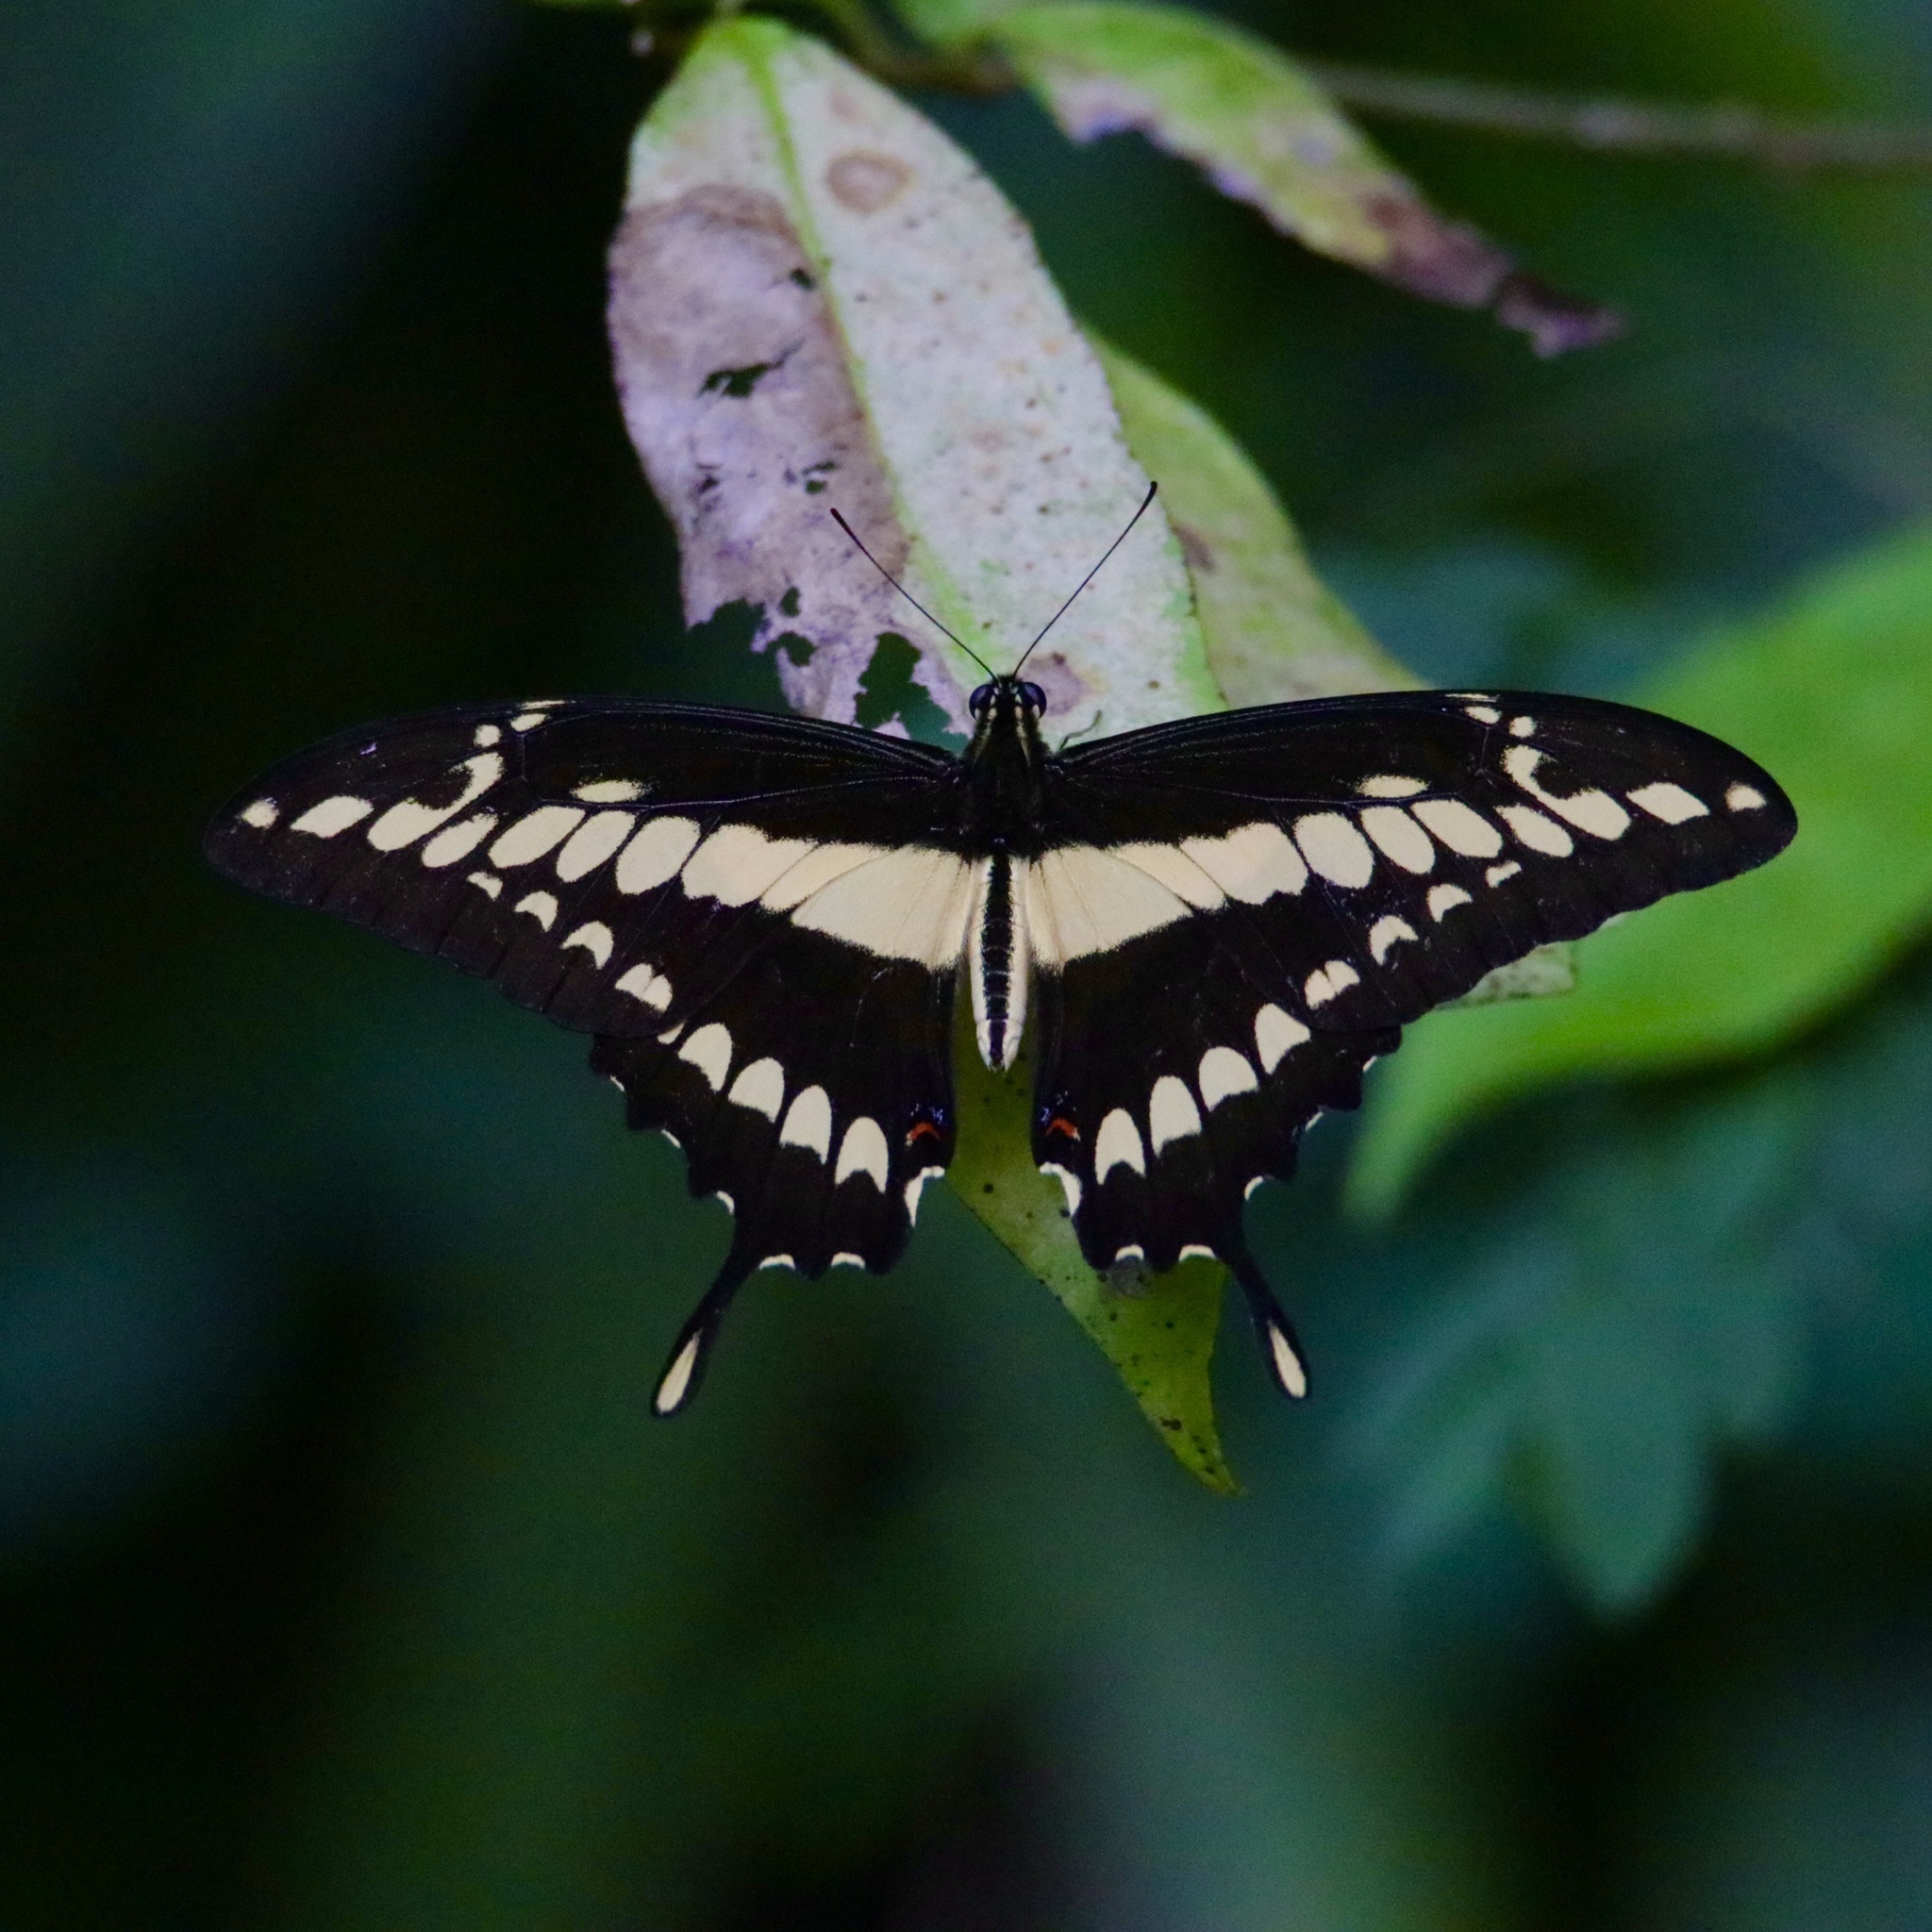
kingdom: Animalia
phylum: Arthropoda
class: Insecta
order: Lepidoptera
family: Papilionidae
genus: Papilio
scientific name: Papilio thoas
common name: King swallowtail
